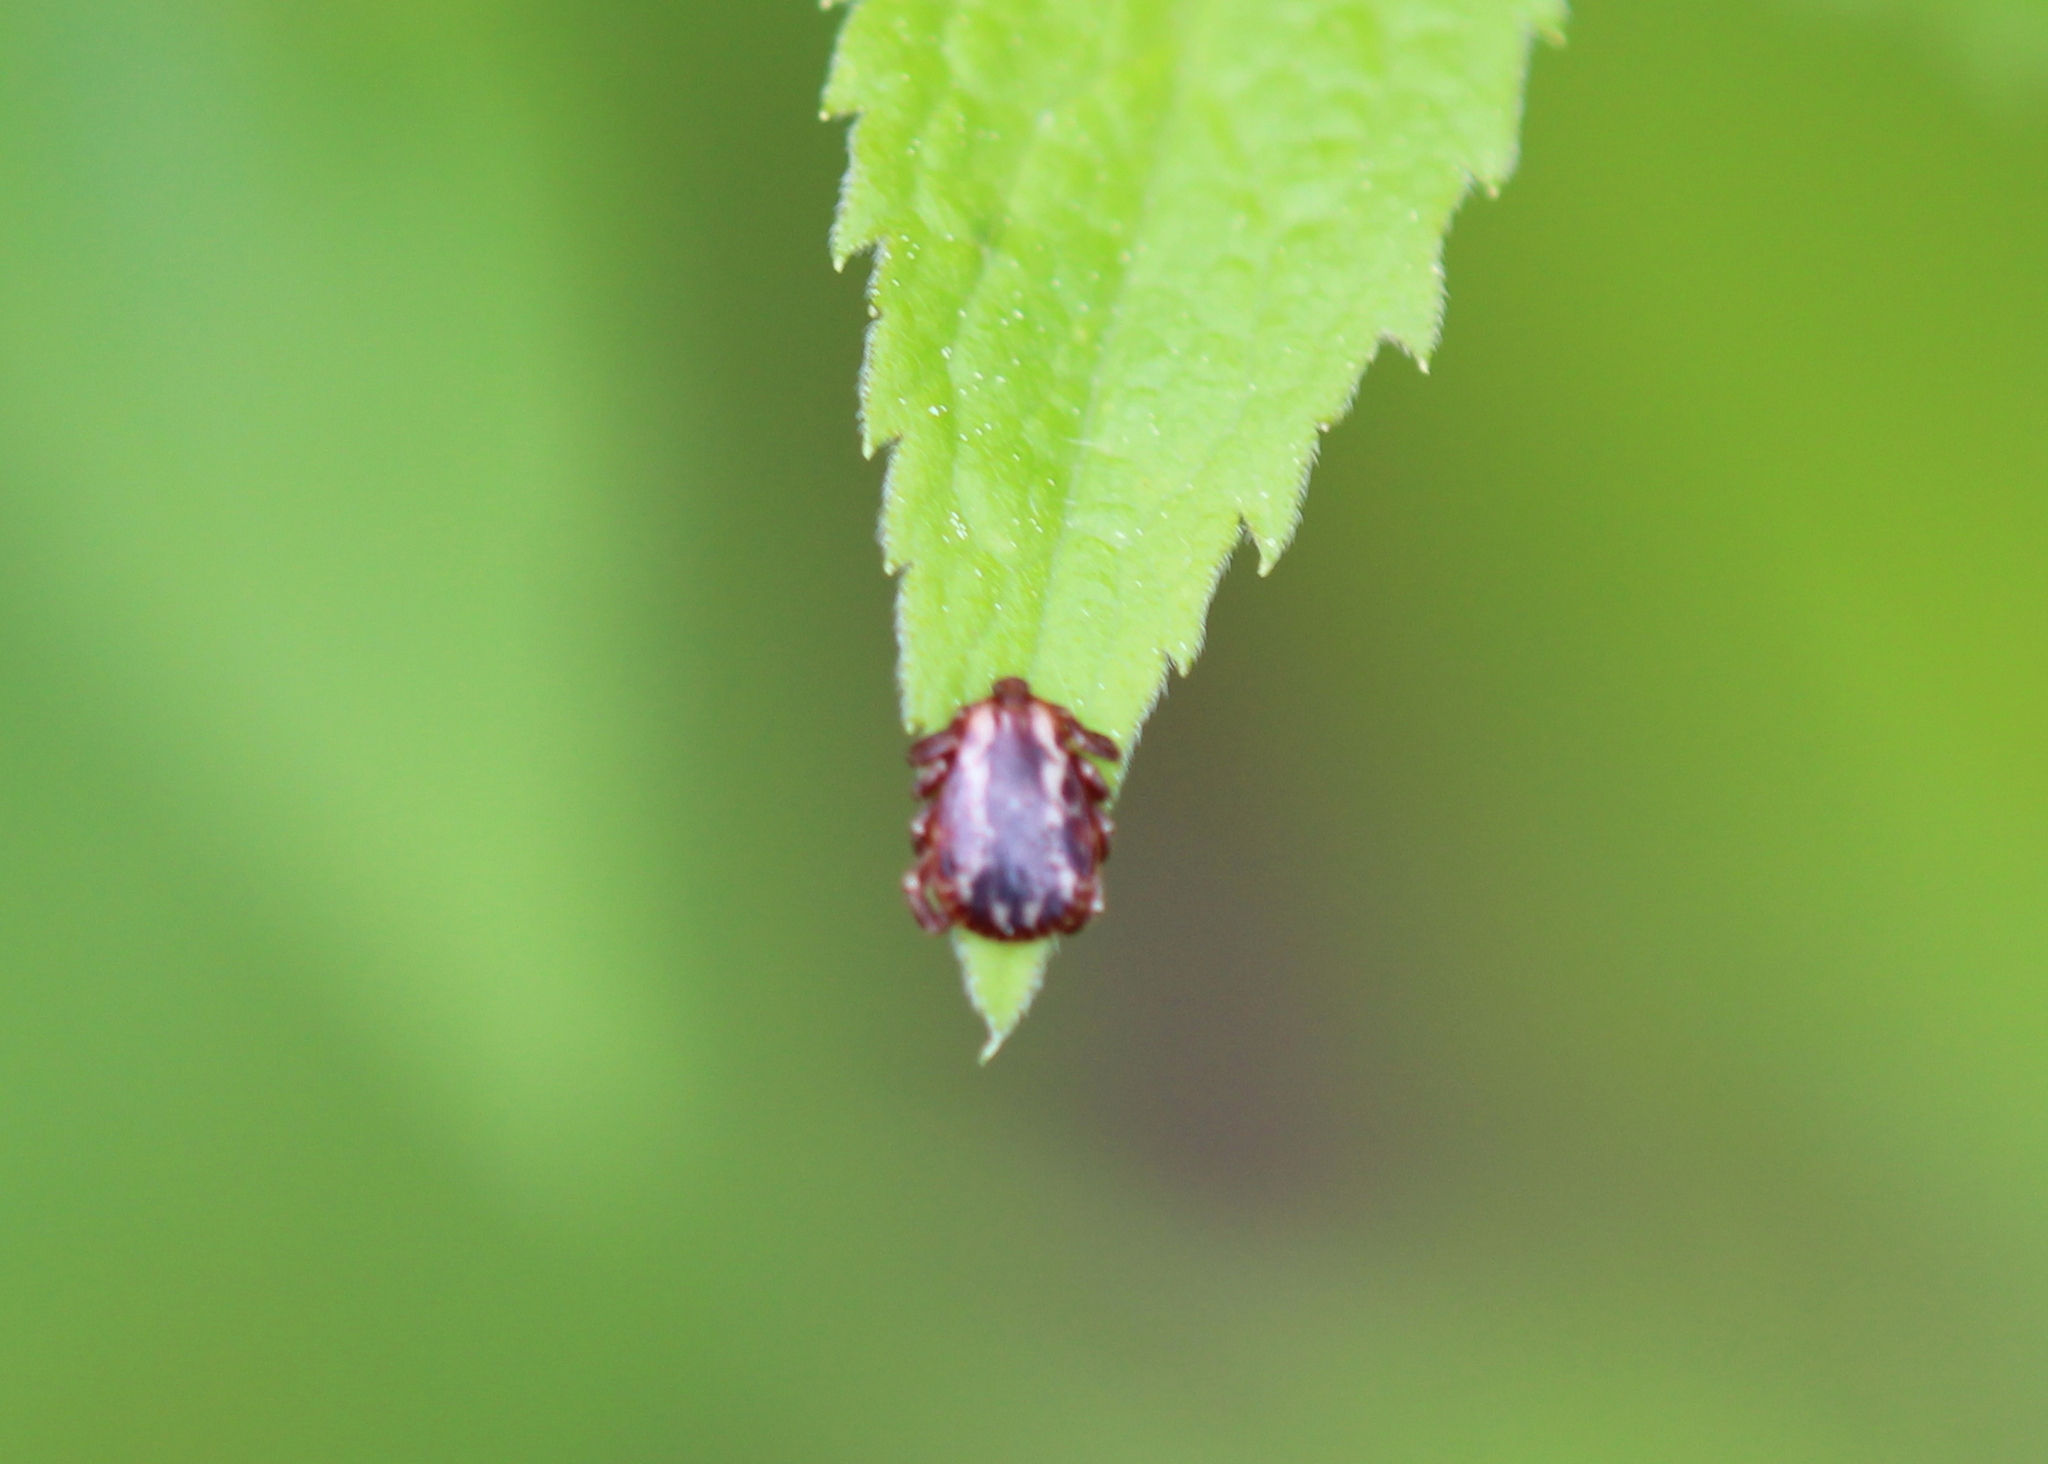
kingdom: Animalia
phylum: Arthropoda
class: Arachnida
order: Ixodida
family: Ixodidae
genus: Dermacentor
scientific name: Dermacentor variabilis
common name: American dog tick
